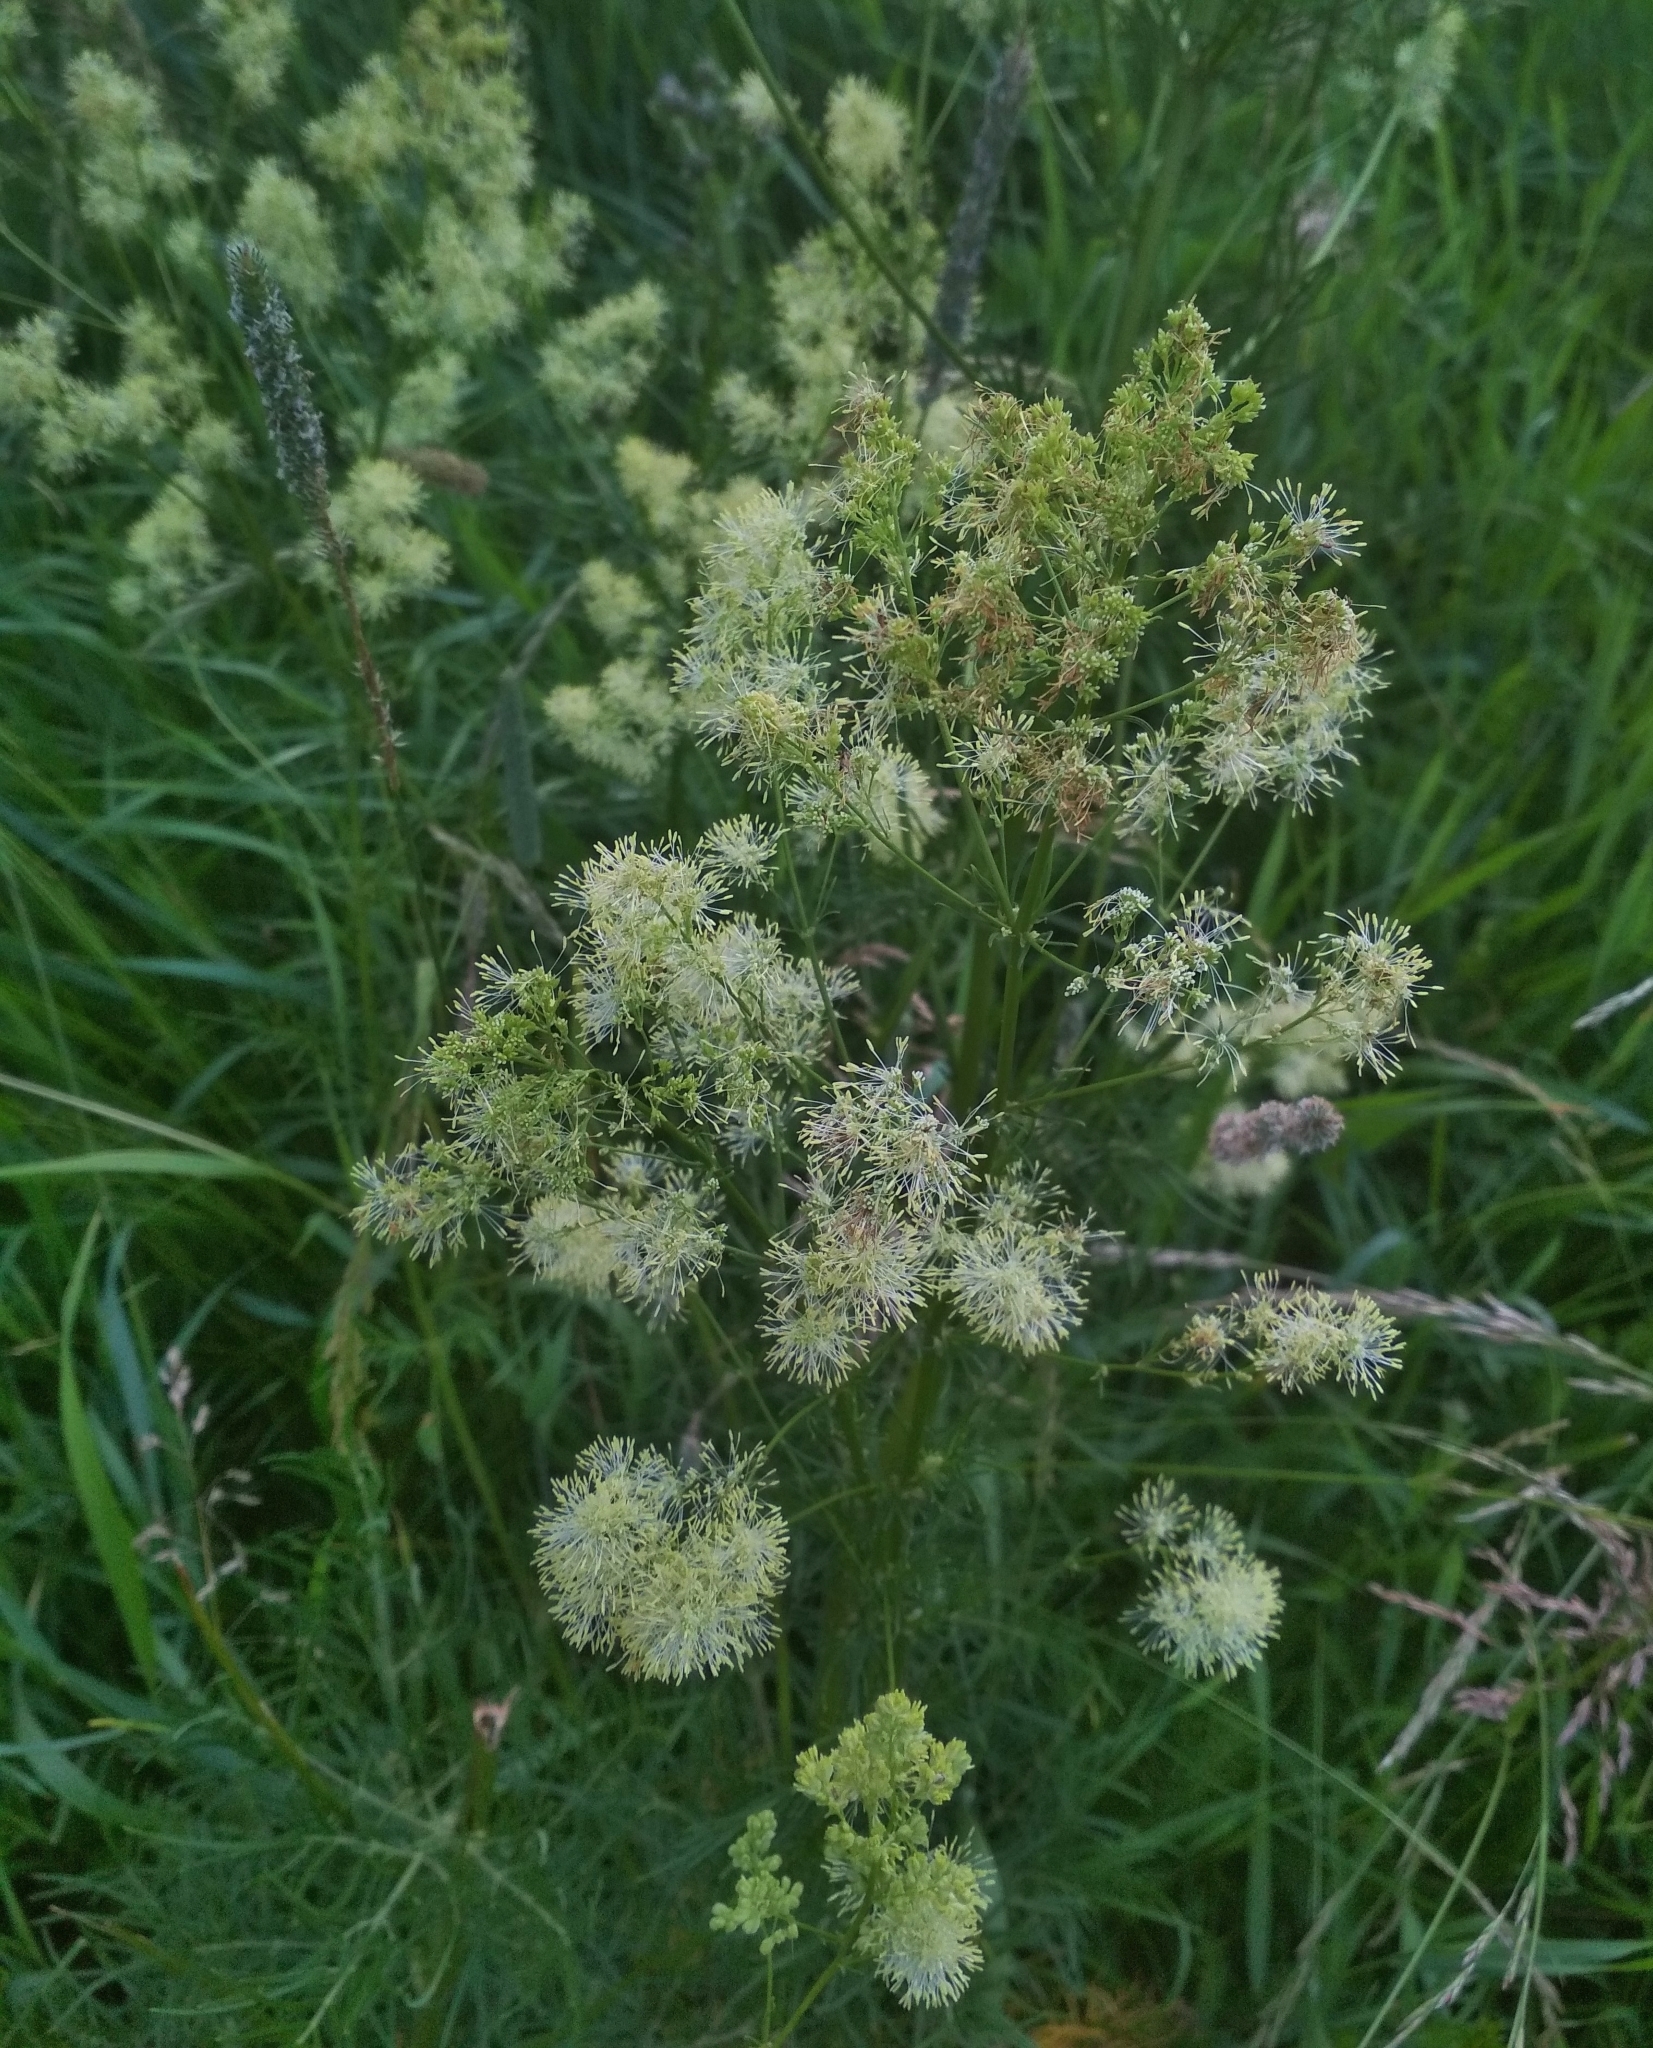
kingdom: Plantae
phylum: Tracheophyta
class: Magnoliopsida
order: Ranunculales
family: Ranunculaceae
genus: Thalictrum
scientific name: Thalictrum lucidum
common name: Shining meadow-rue
